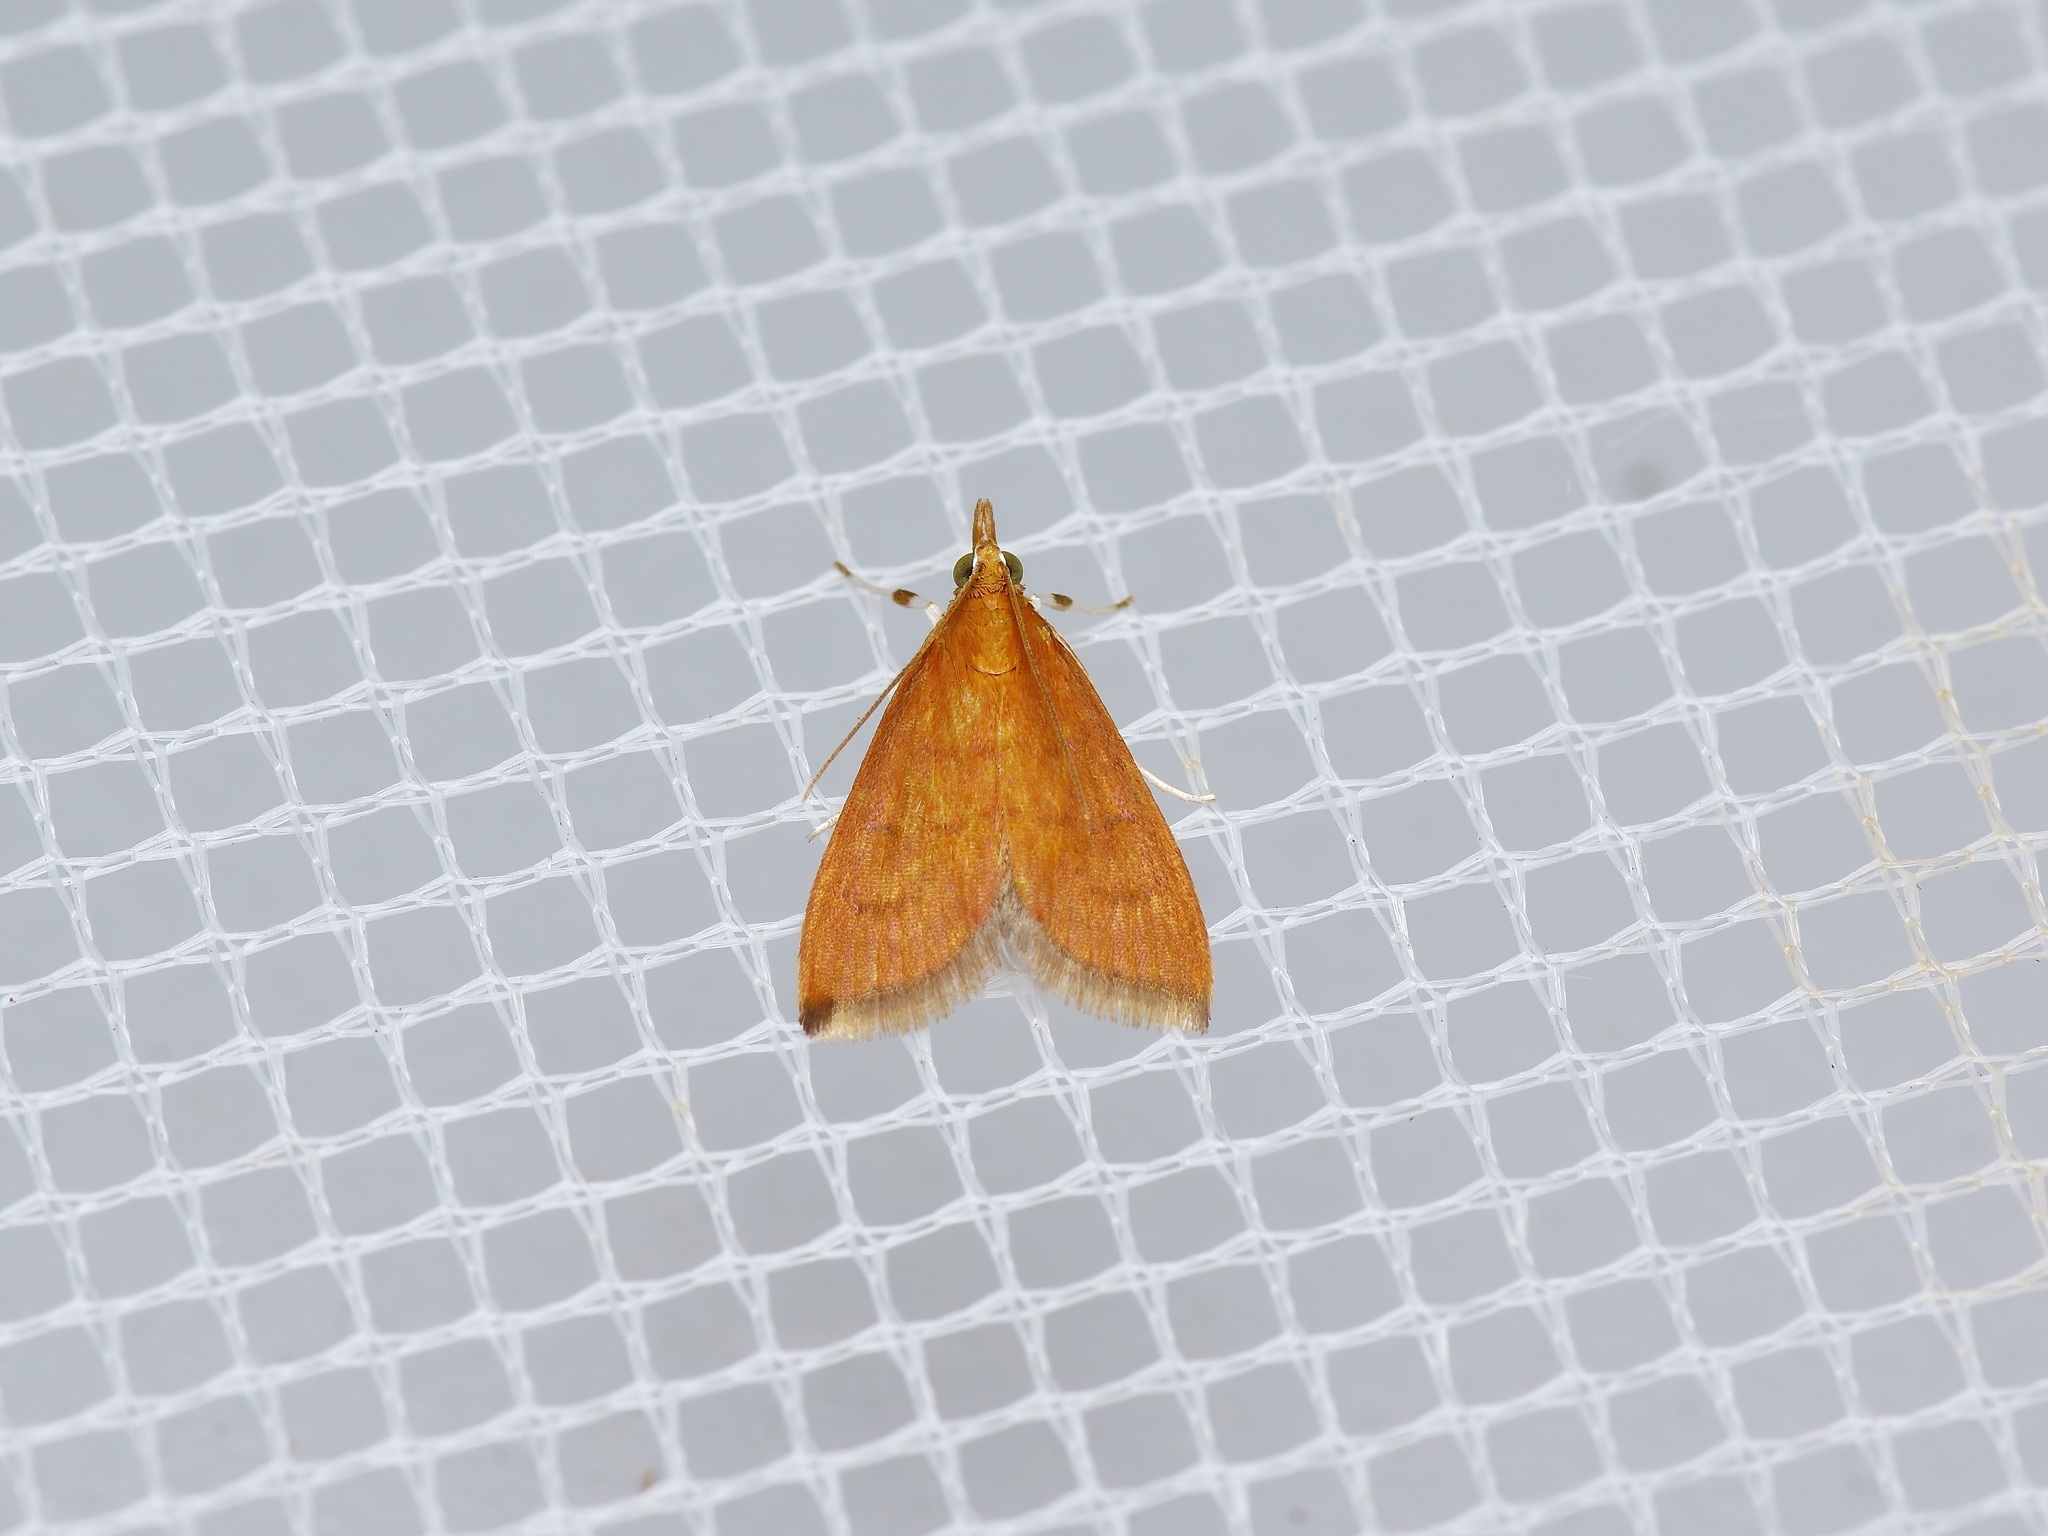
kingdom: Animalia
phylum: Arthropoda
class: Insecta
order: Lepidoptera
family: Crambidae
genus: Udea
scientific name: Udea rubigalis
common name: Celery leaftier moth
